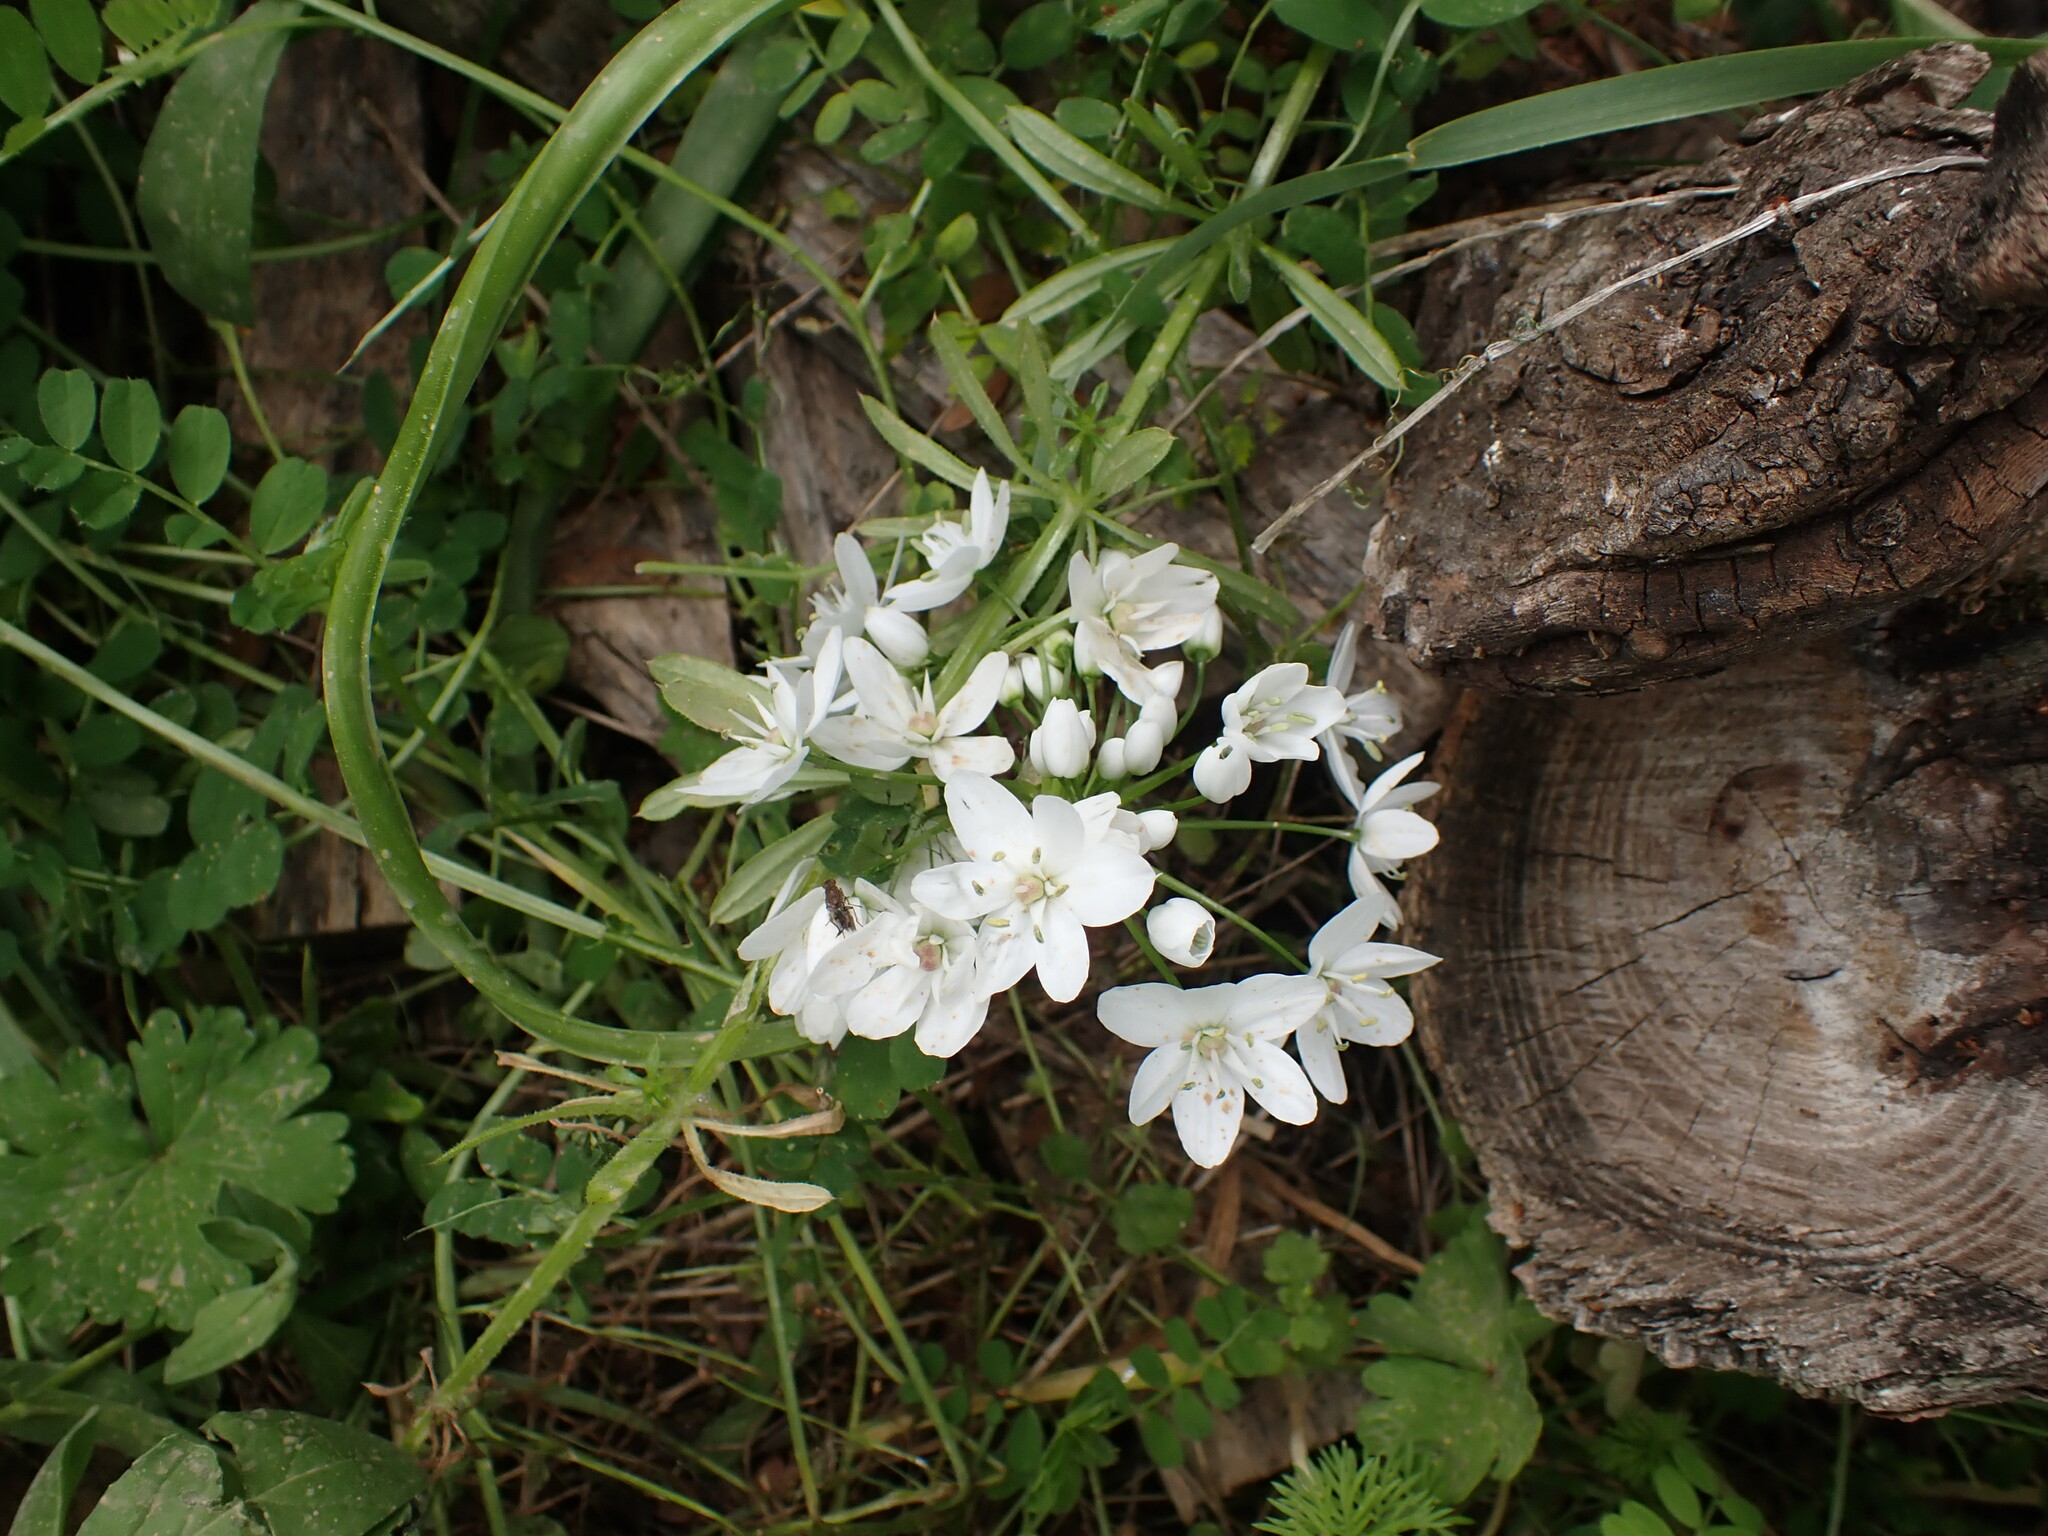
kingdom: Plantae
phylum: Tracheophyta
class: Liliopsida
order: Asparagales
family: Amaryllidaceae
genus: Allium
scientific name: Allium neapolitanum
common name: Neapolitan garlic
